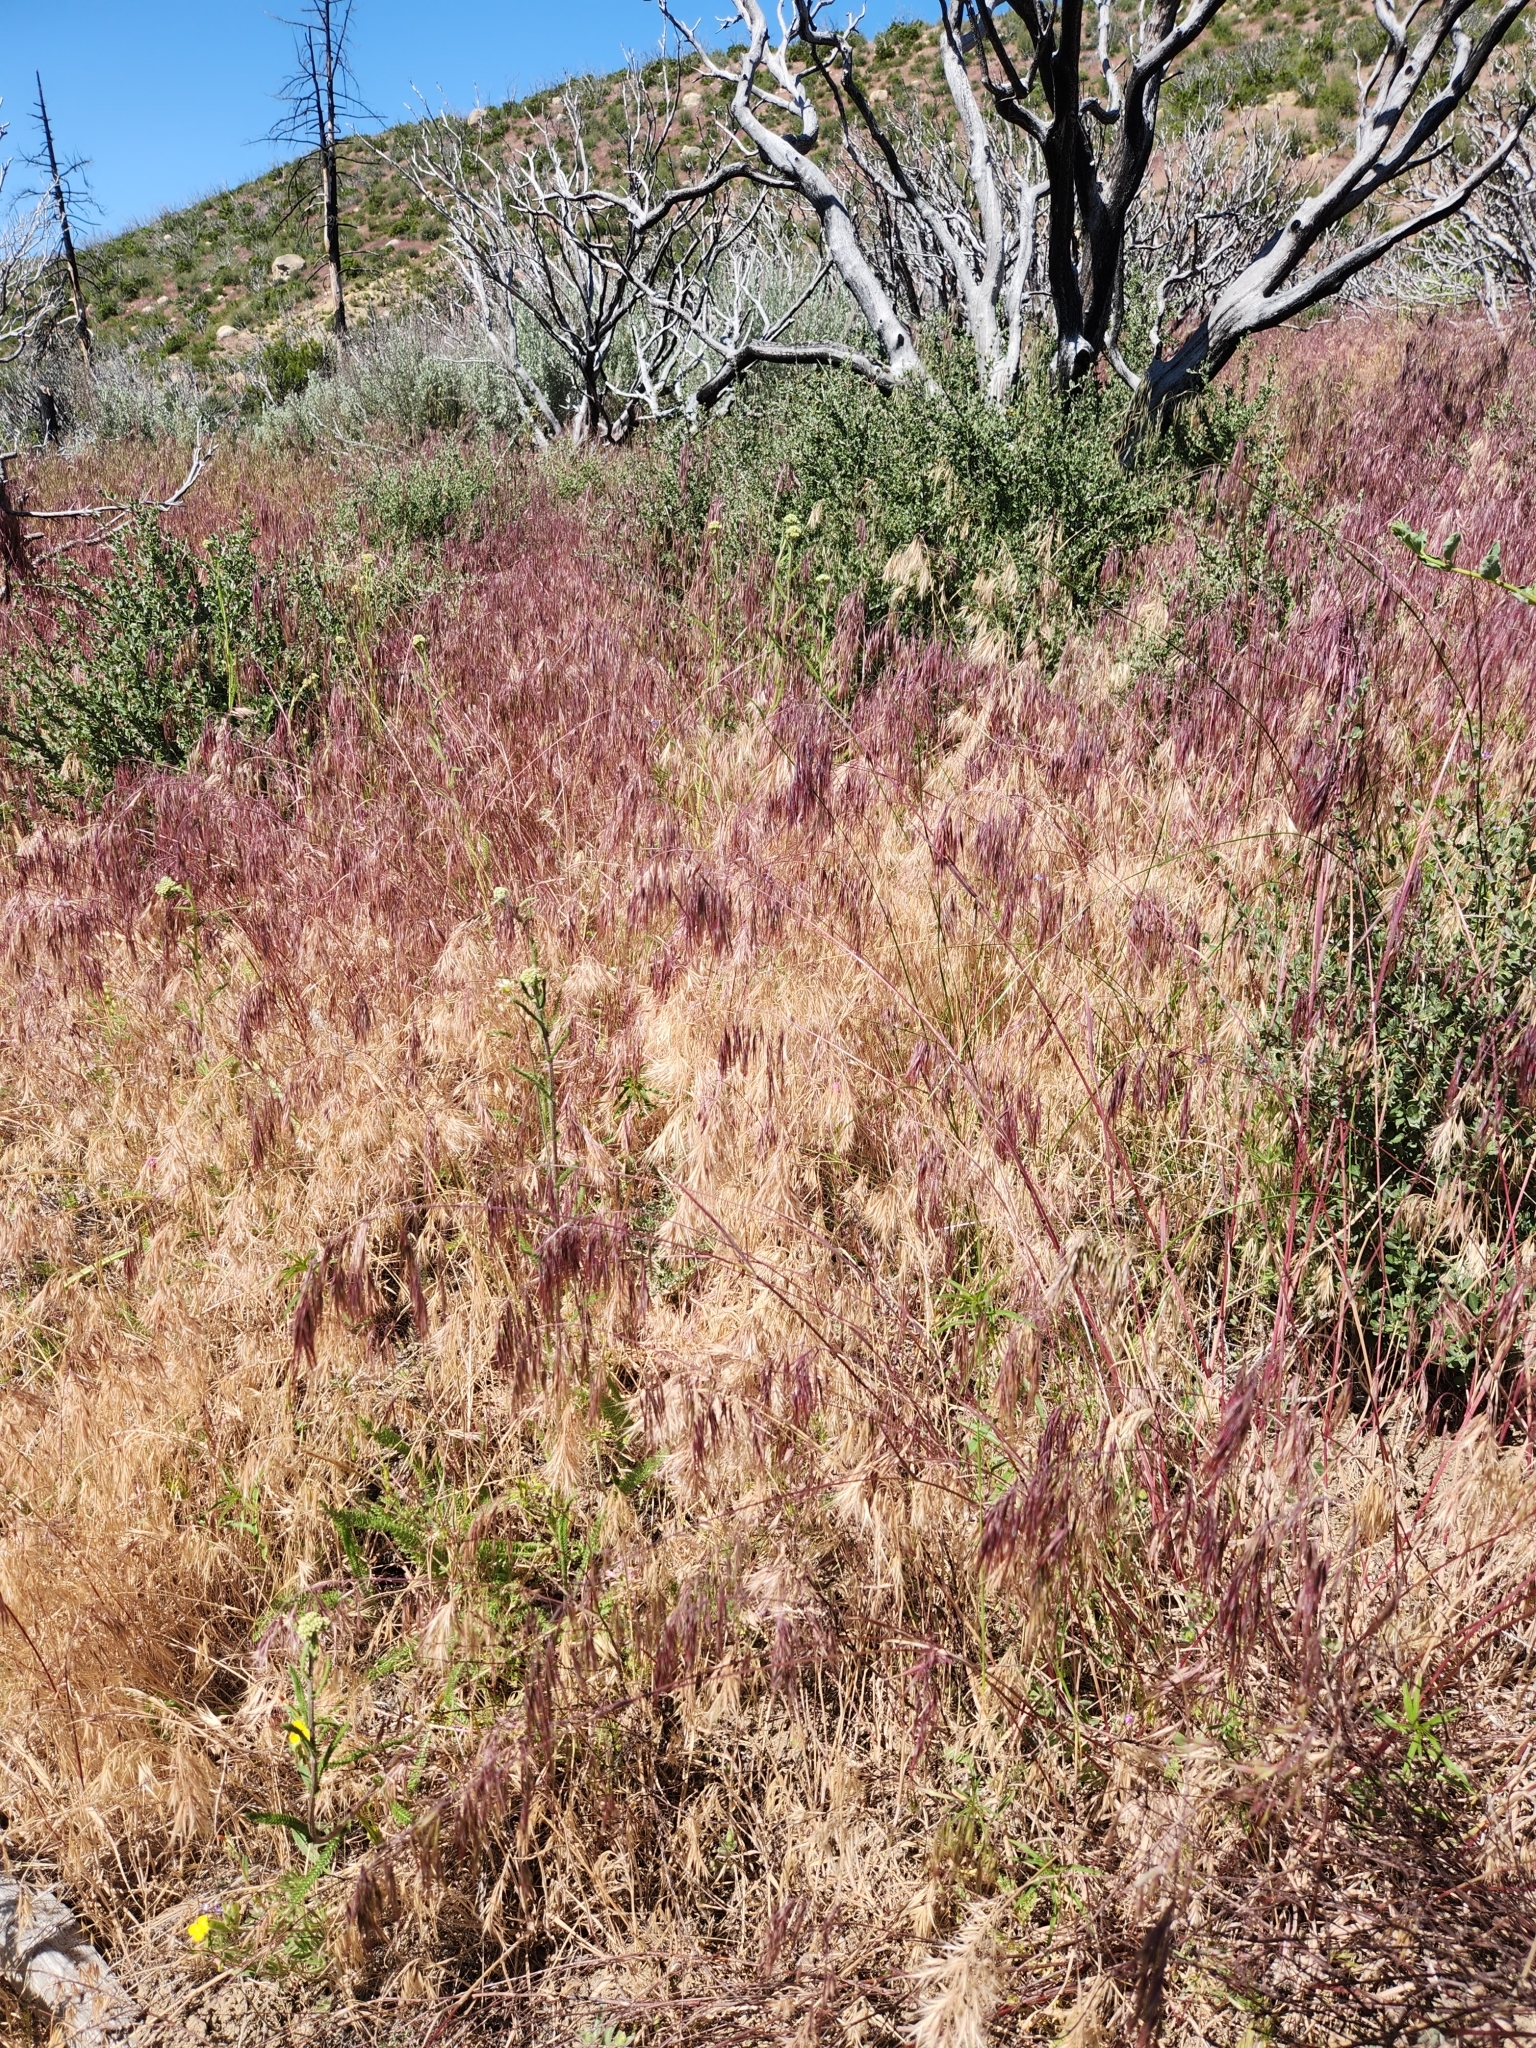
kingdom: Plantae
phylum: Tracheophyta
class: Liliopsida
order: Poales
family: Poaceae
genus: Bromus
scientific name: Bromus tectorum
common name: Cheatgrass
